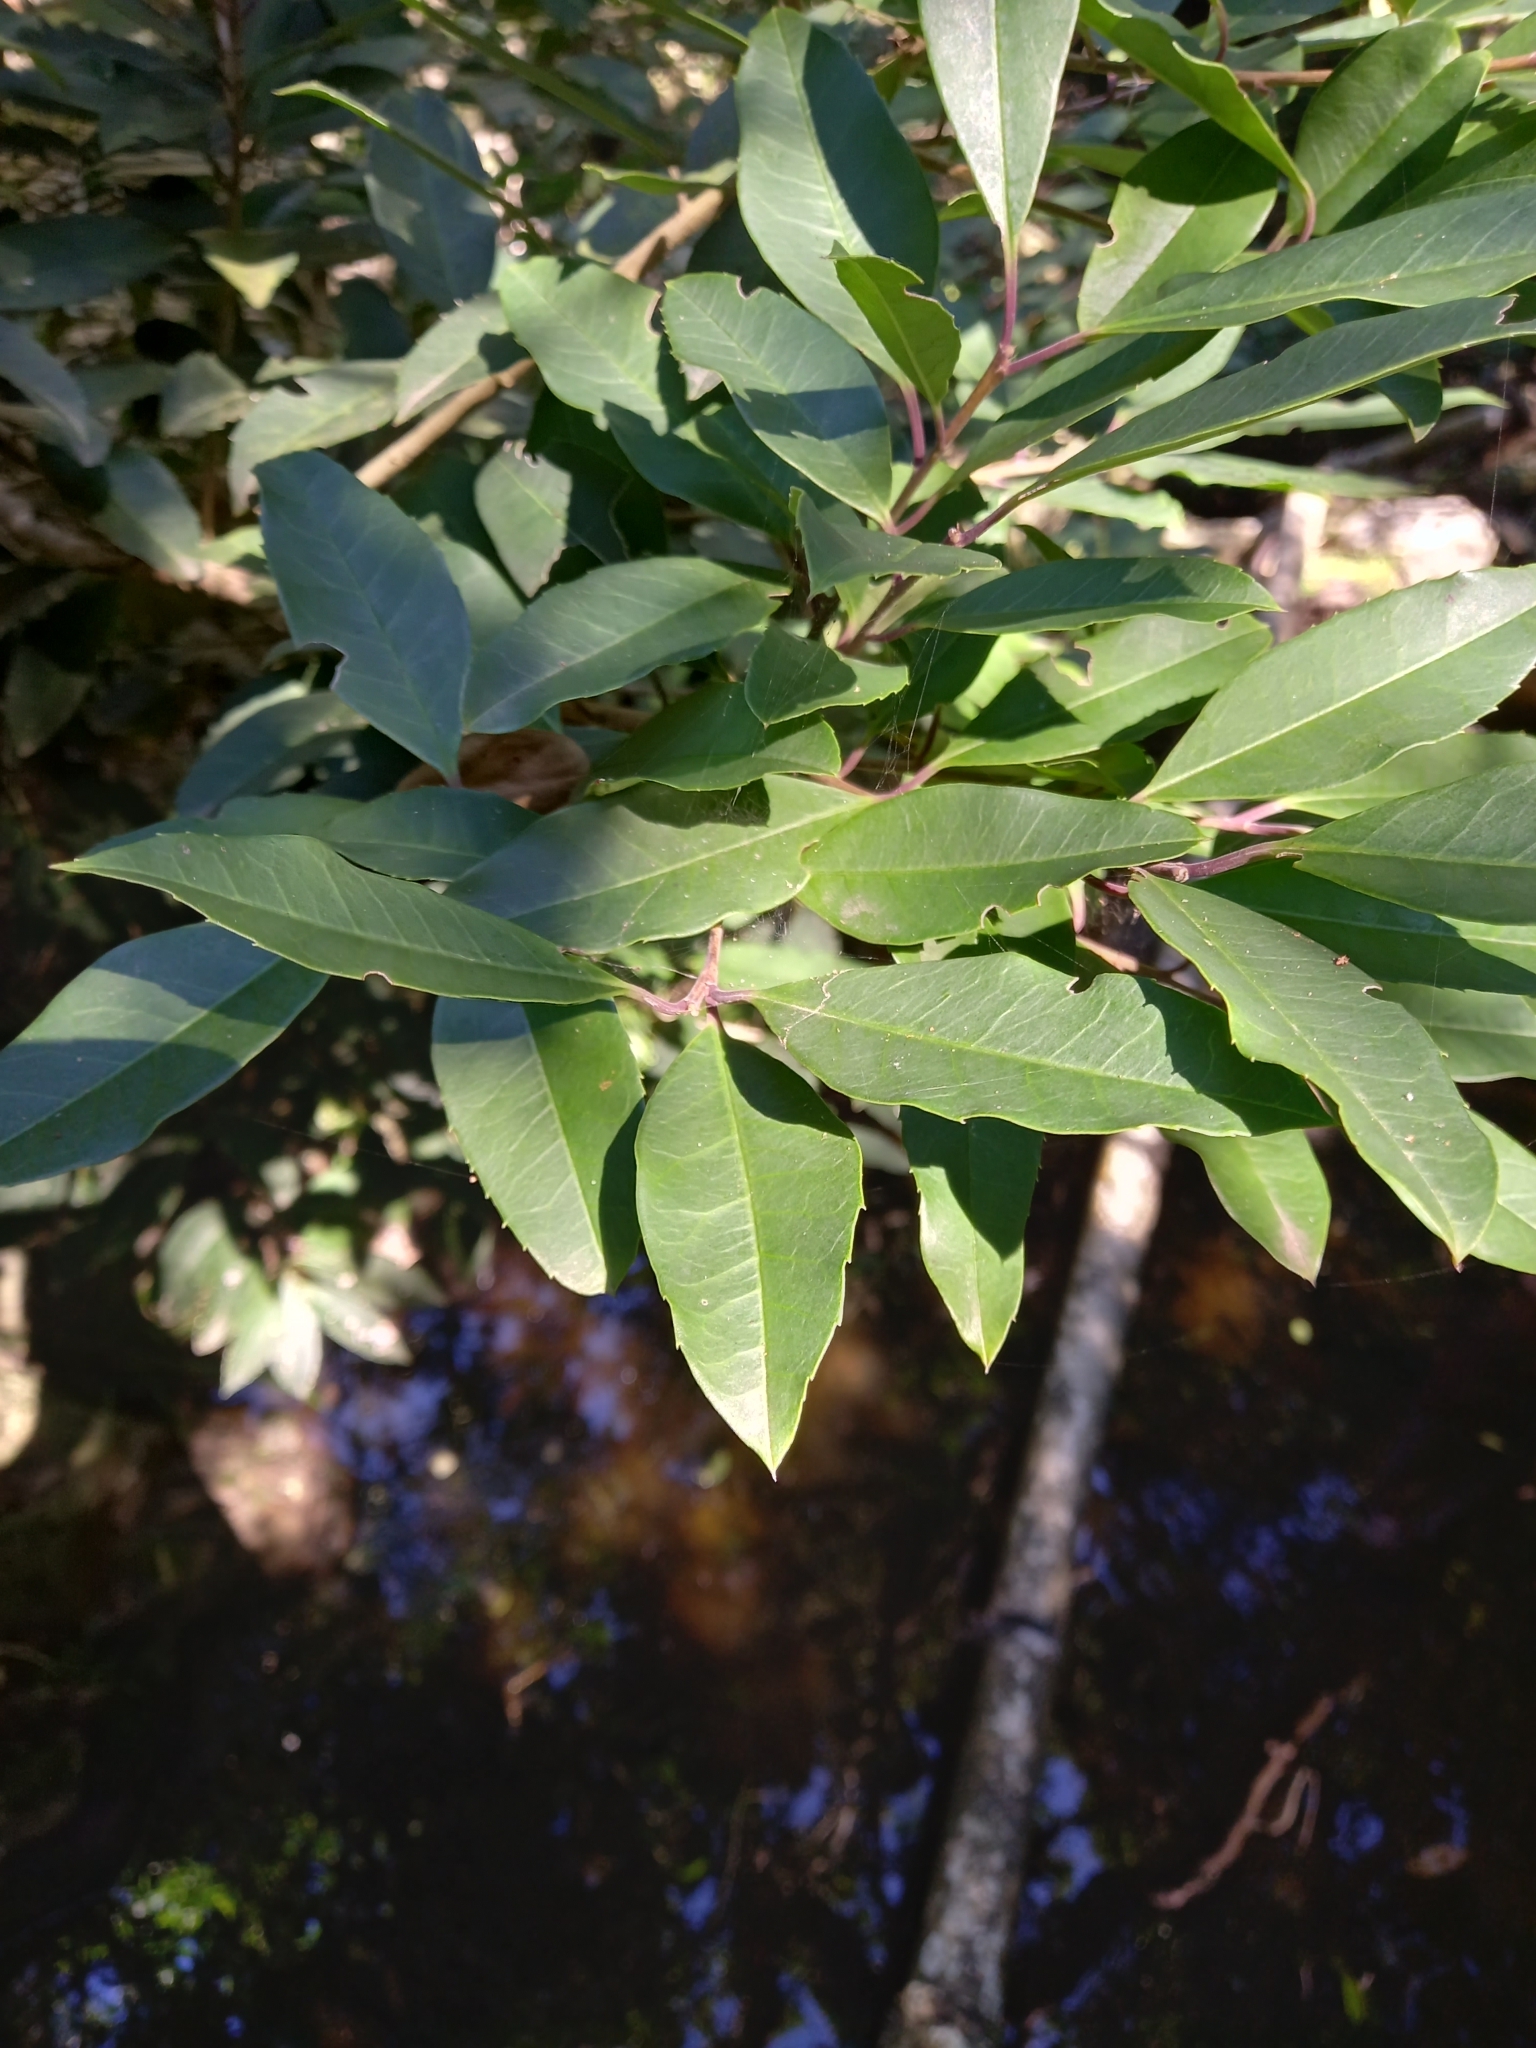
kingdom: Plantae
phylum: Tracheophyta
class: Magnoliopsida
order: Aquifoliales
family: Aquifoliaceae
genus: Ilex
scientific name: Ilex mitis
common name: African holly
